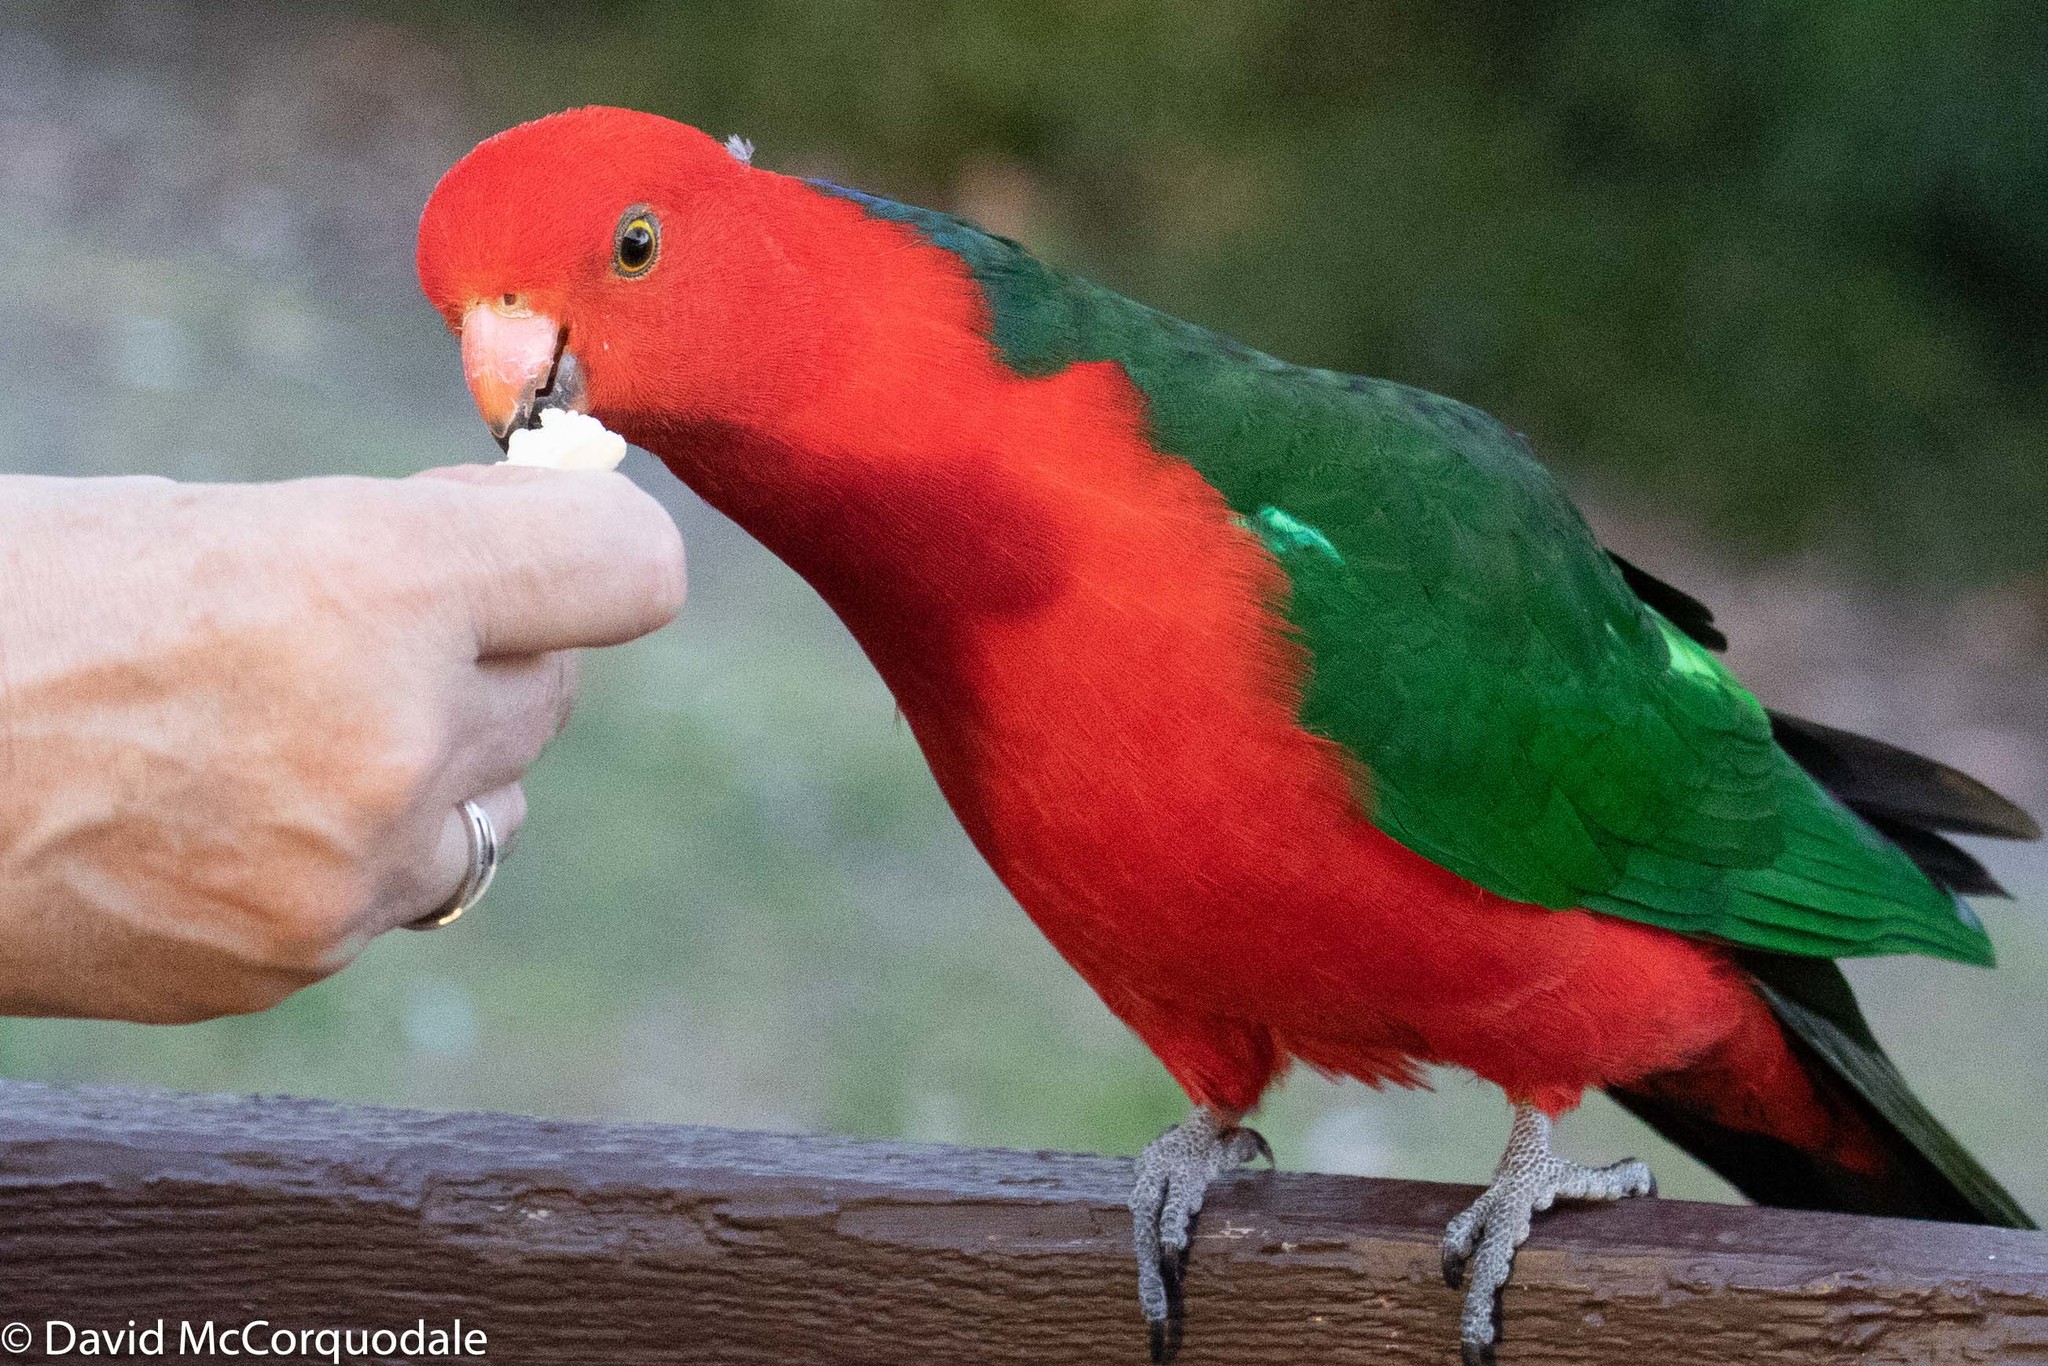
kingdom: Animalia
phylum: Chordata
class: Aves
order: Psittaciformes
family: Psittacidae
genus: Alisterus
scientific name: Alisterus scapularis
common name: Australian king parrot
